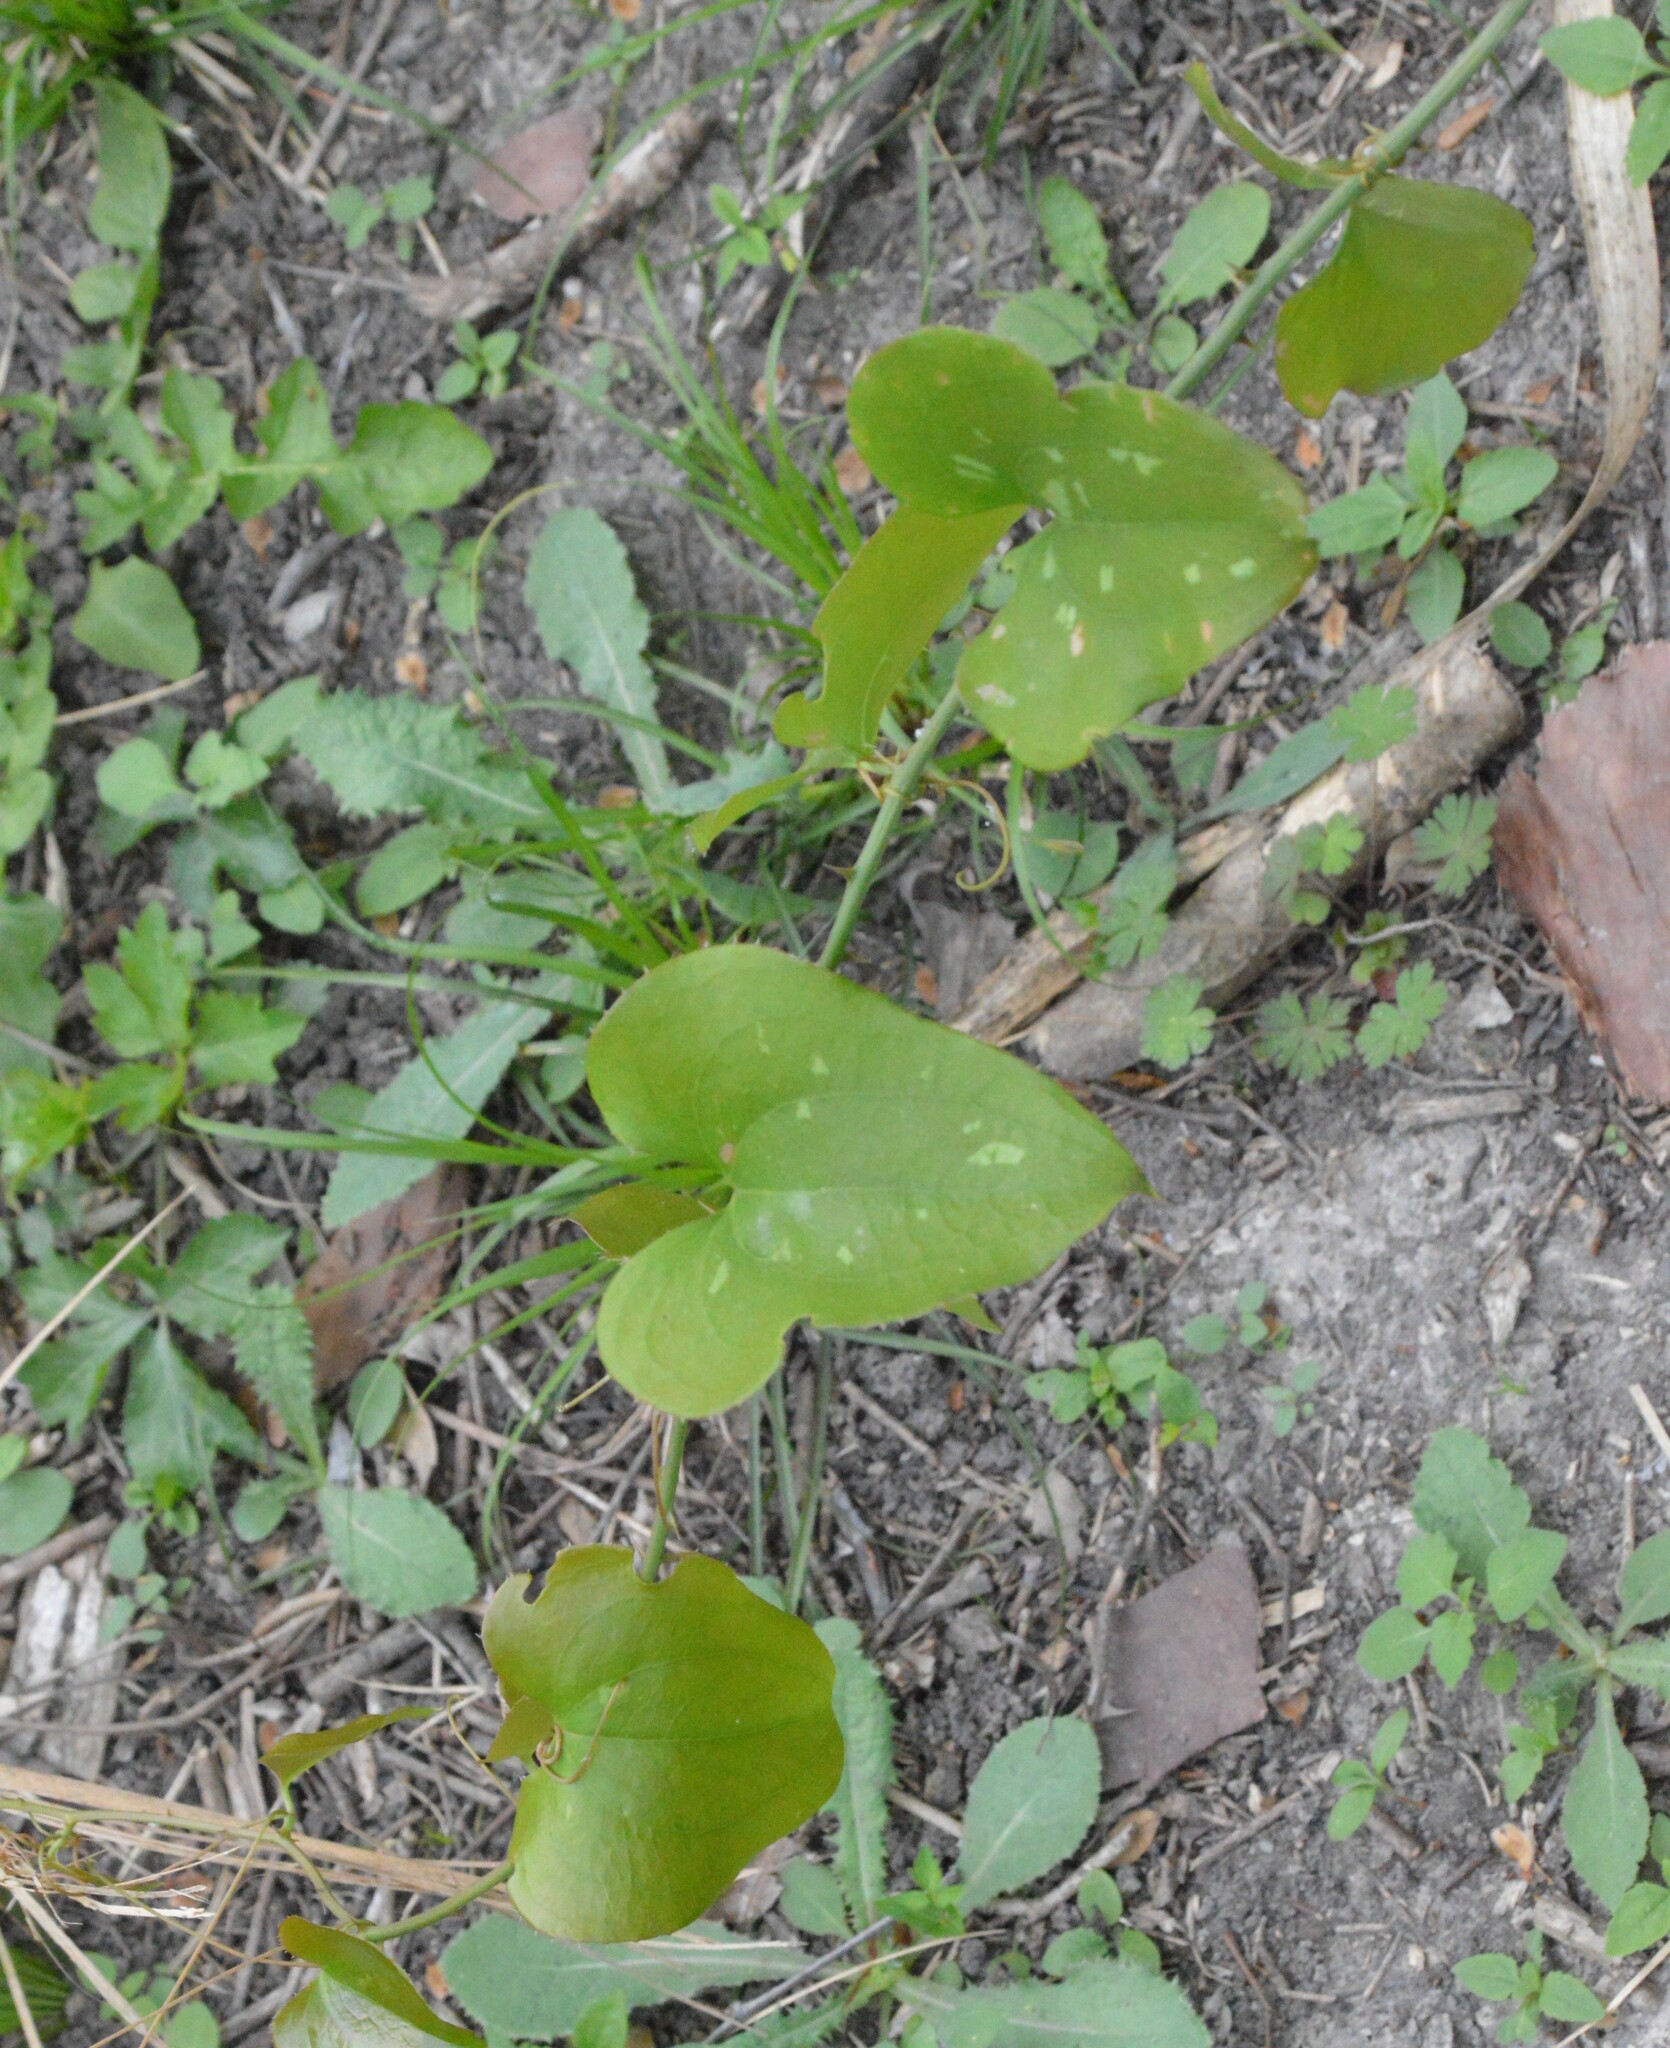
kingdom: Plantae
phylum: Tracheophyta
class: Liliopsida
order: Liliales
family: Smilacaceae
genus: Smilax
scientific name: Smilax bona-nox
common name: Catbrier
